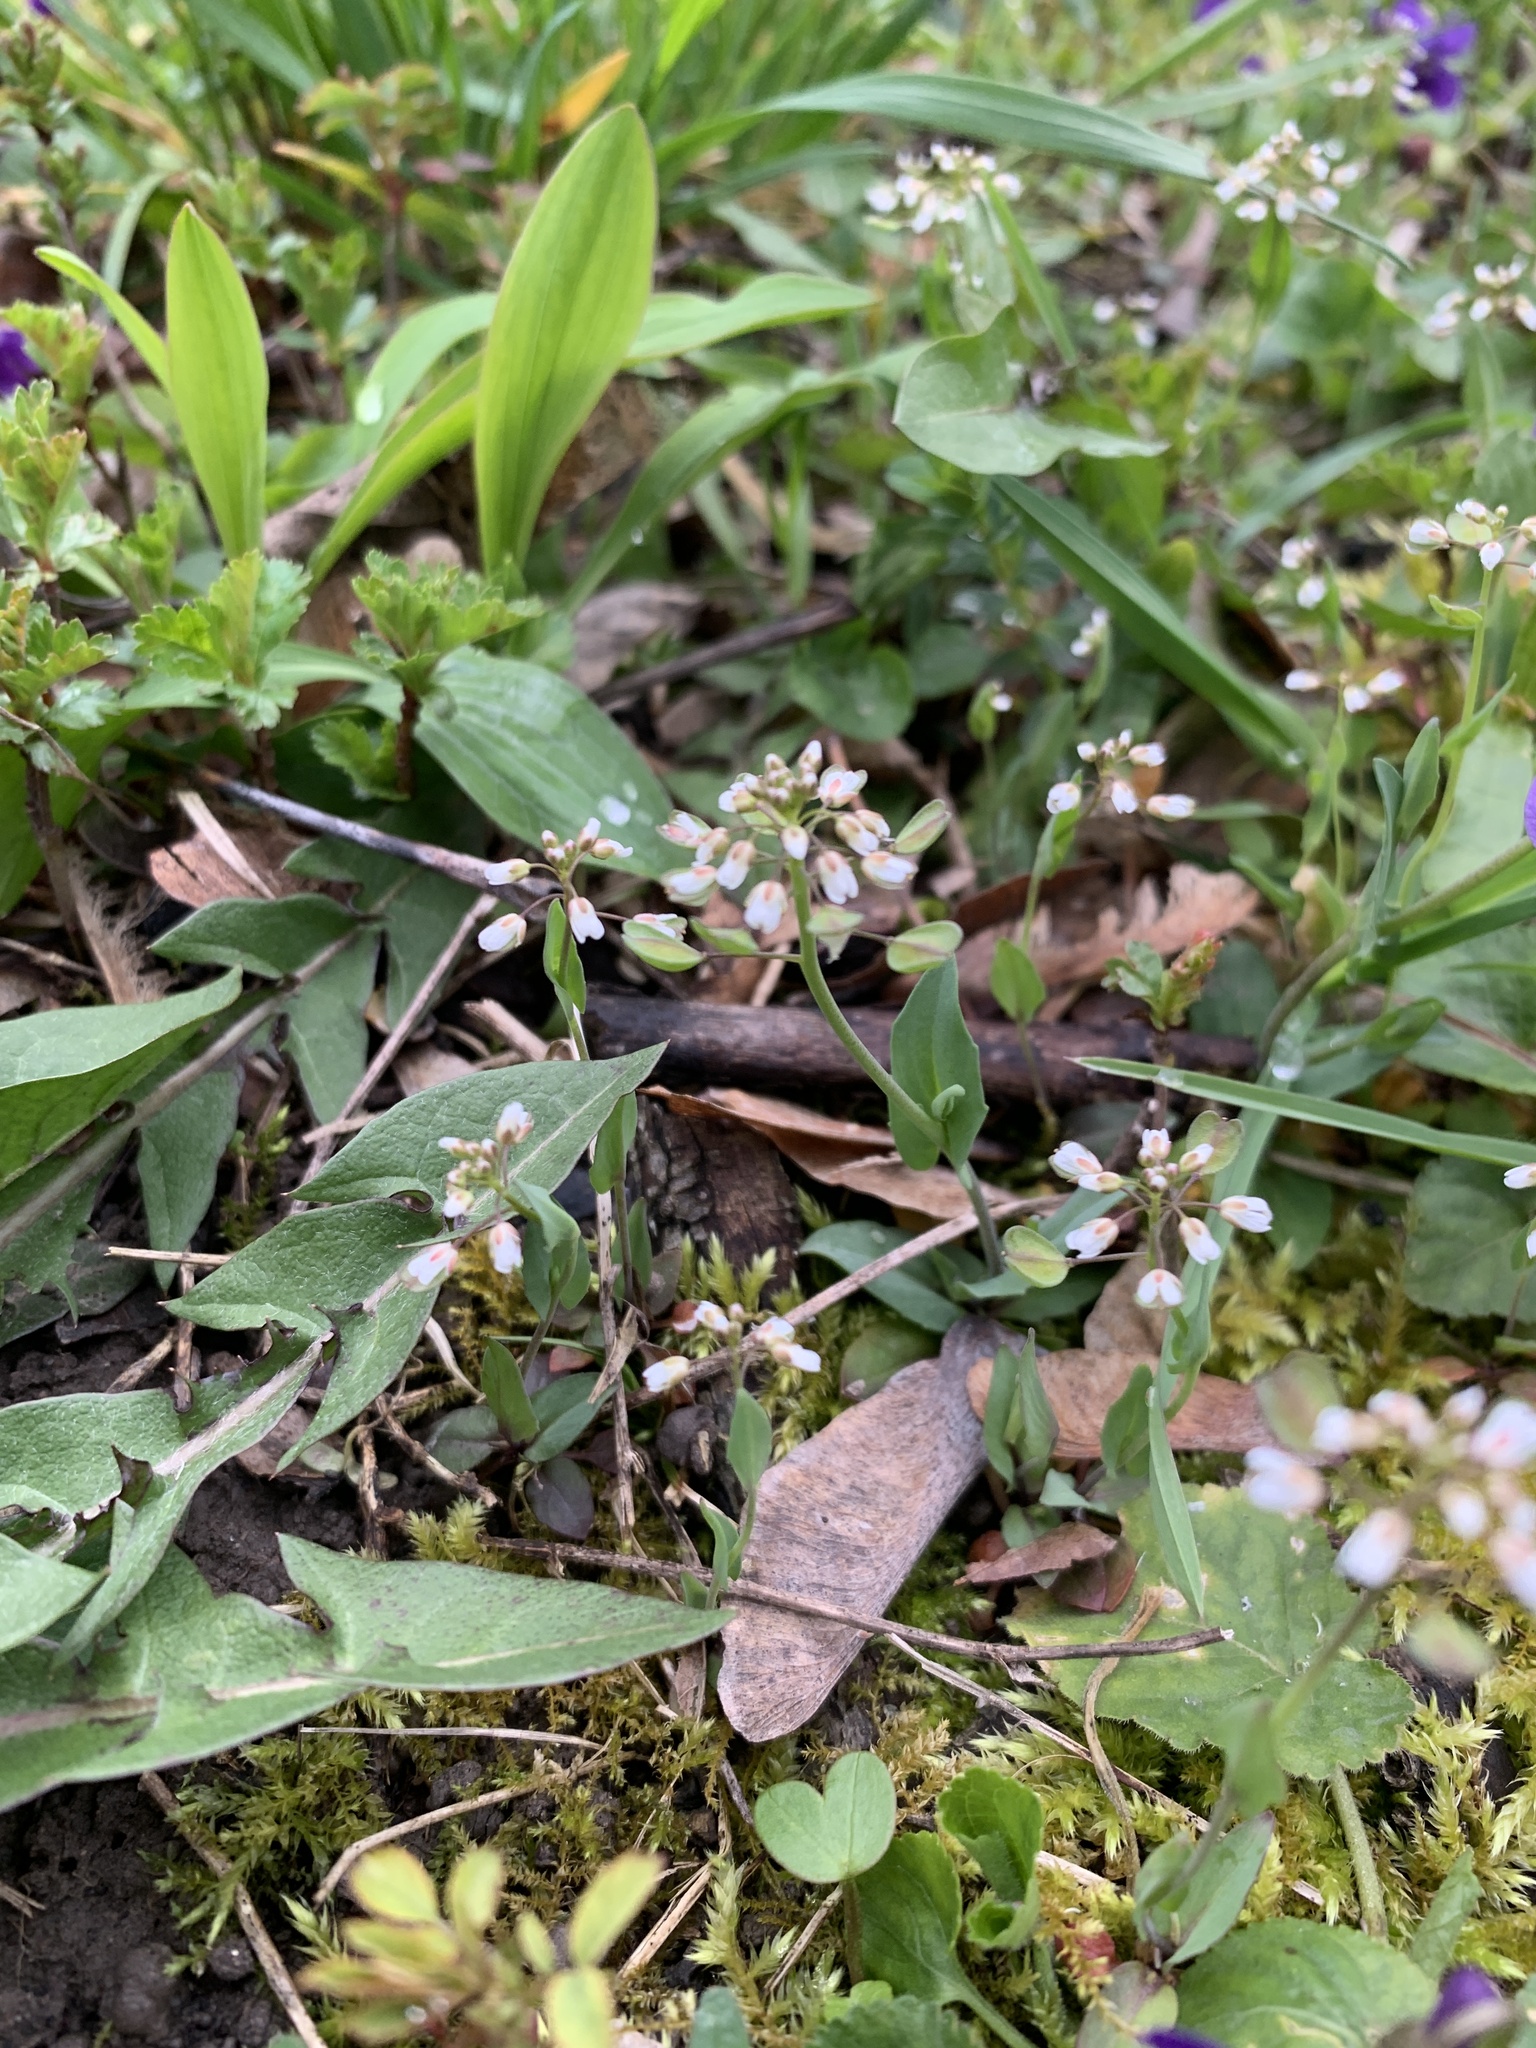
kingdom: Plantae
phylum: Tracheophyta
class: Magnoliopsida
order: Brassicales
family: Brassicaceae
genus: Noccaea
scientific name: Noccaea perfoliata
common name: Perfoliate pennycress
